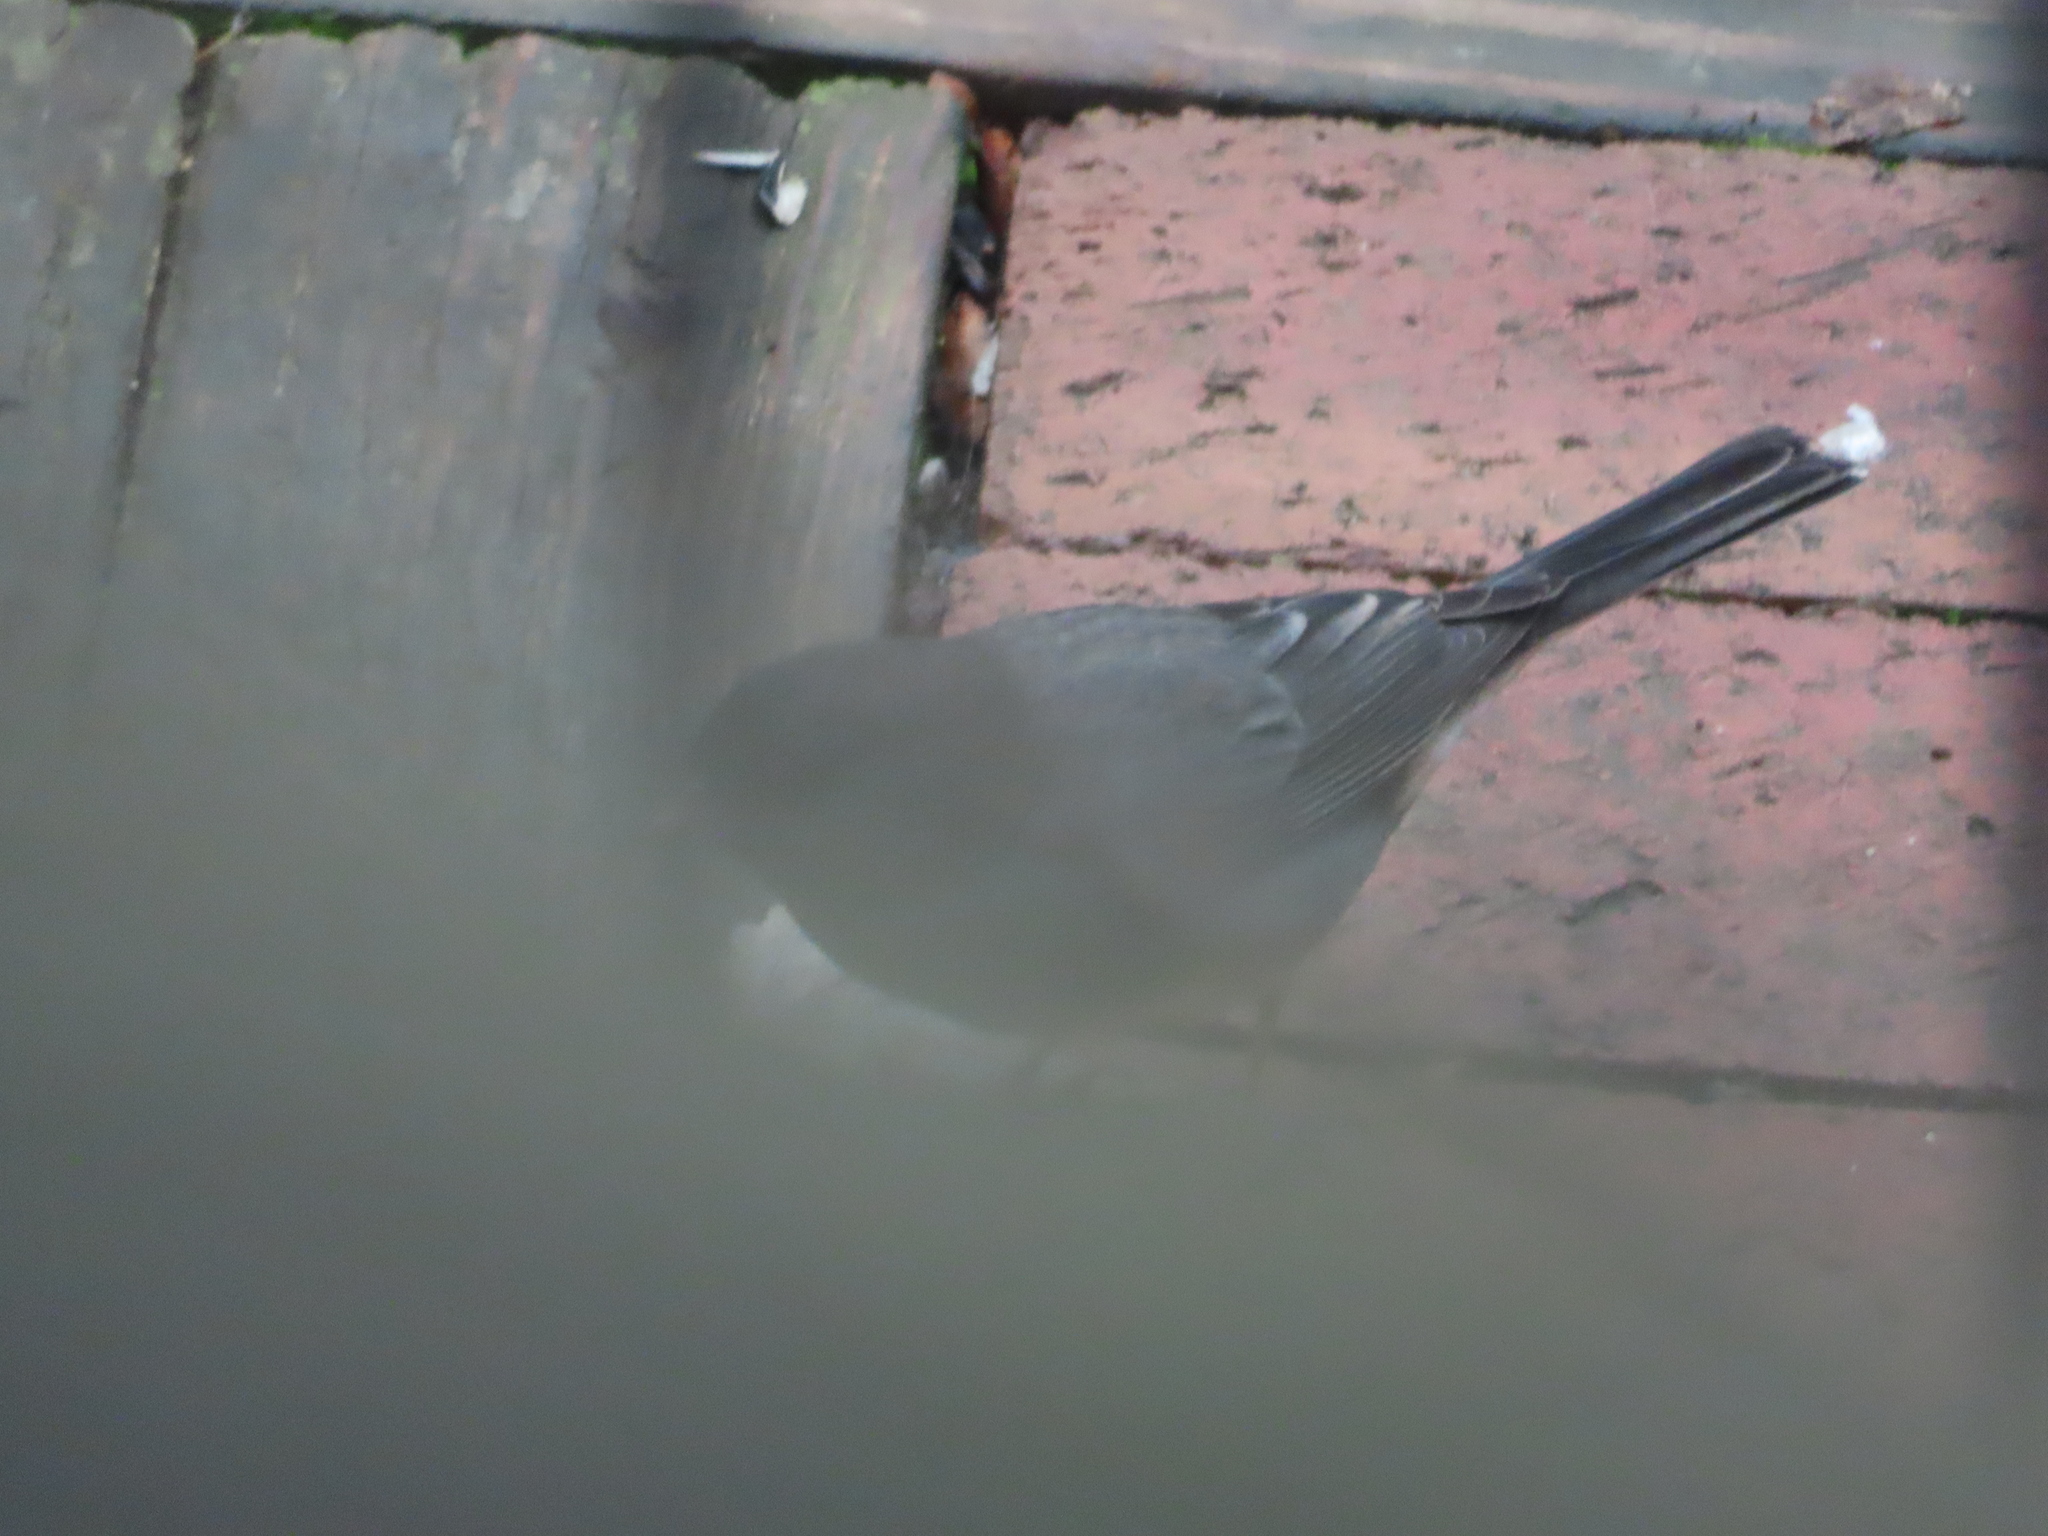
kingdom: Animalia
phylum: Chordata
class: Aves
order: Passeriformes
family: Passerellidae
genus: Junco
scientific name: Junco hyemalis
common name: Dark-eyed junco
